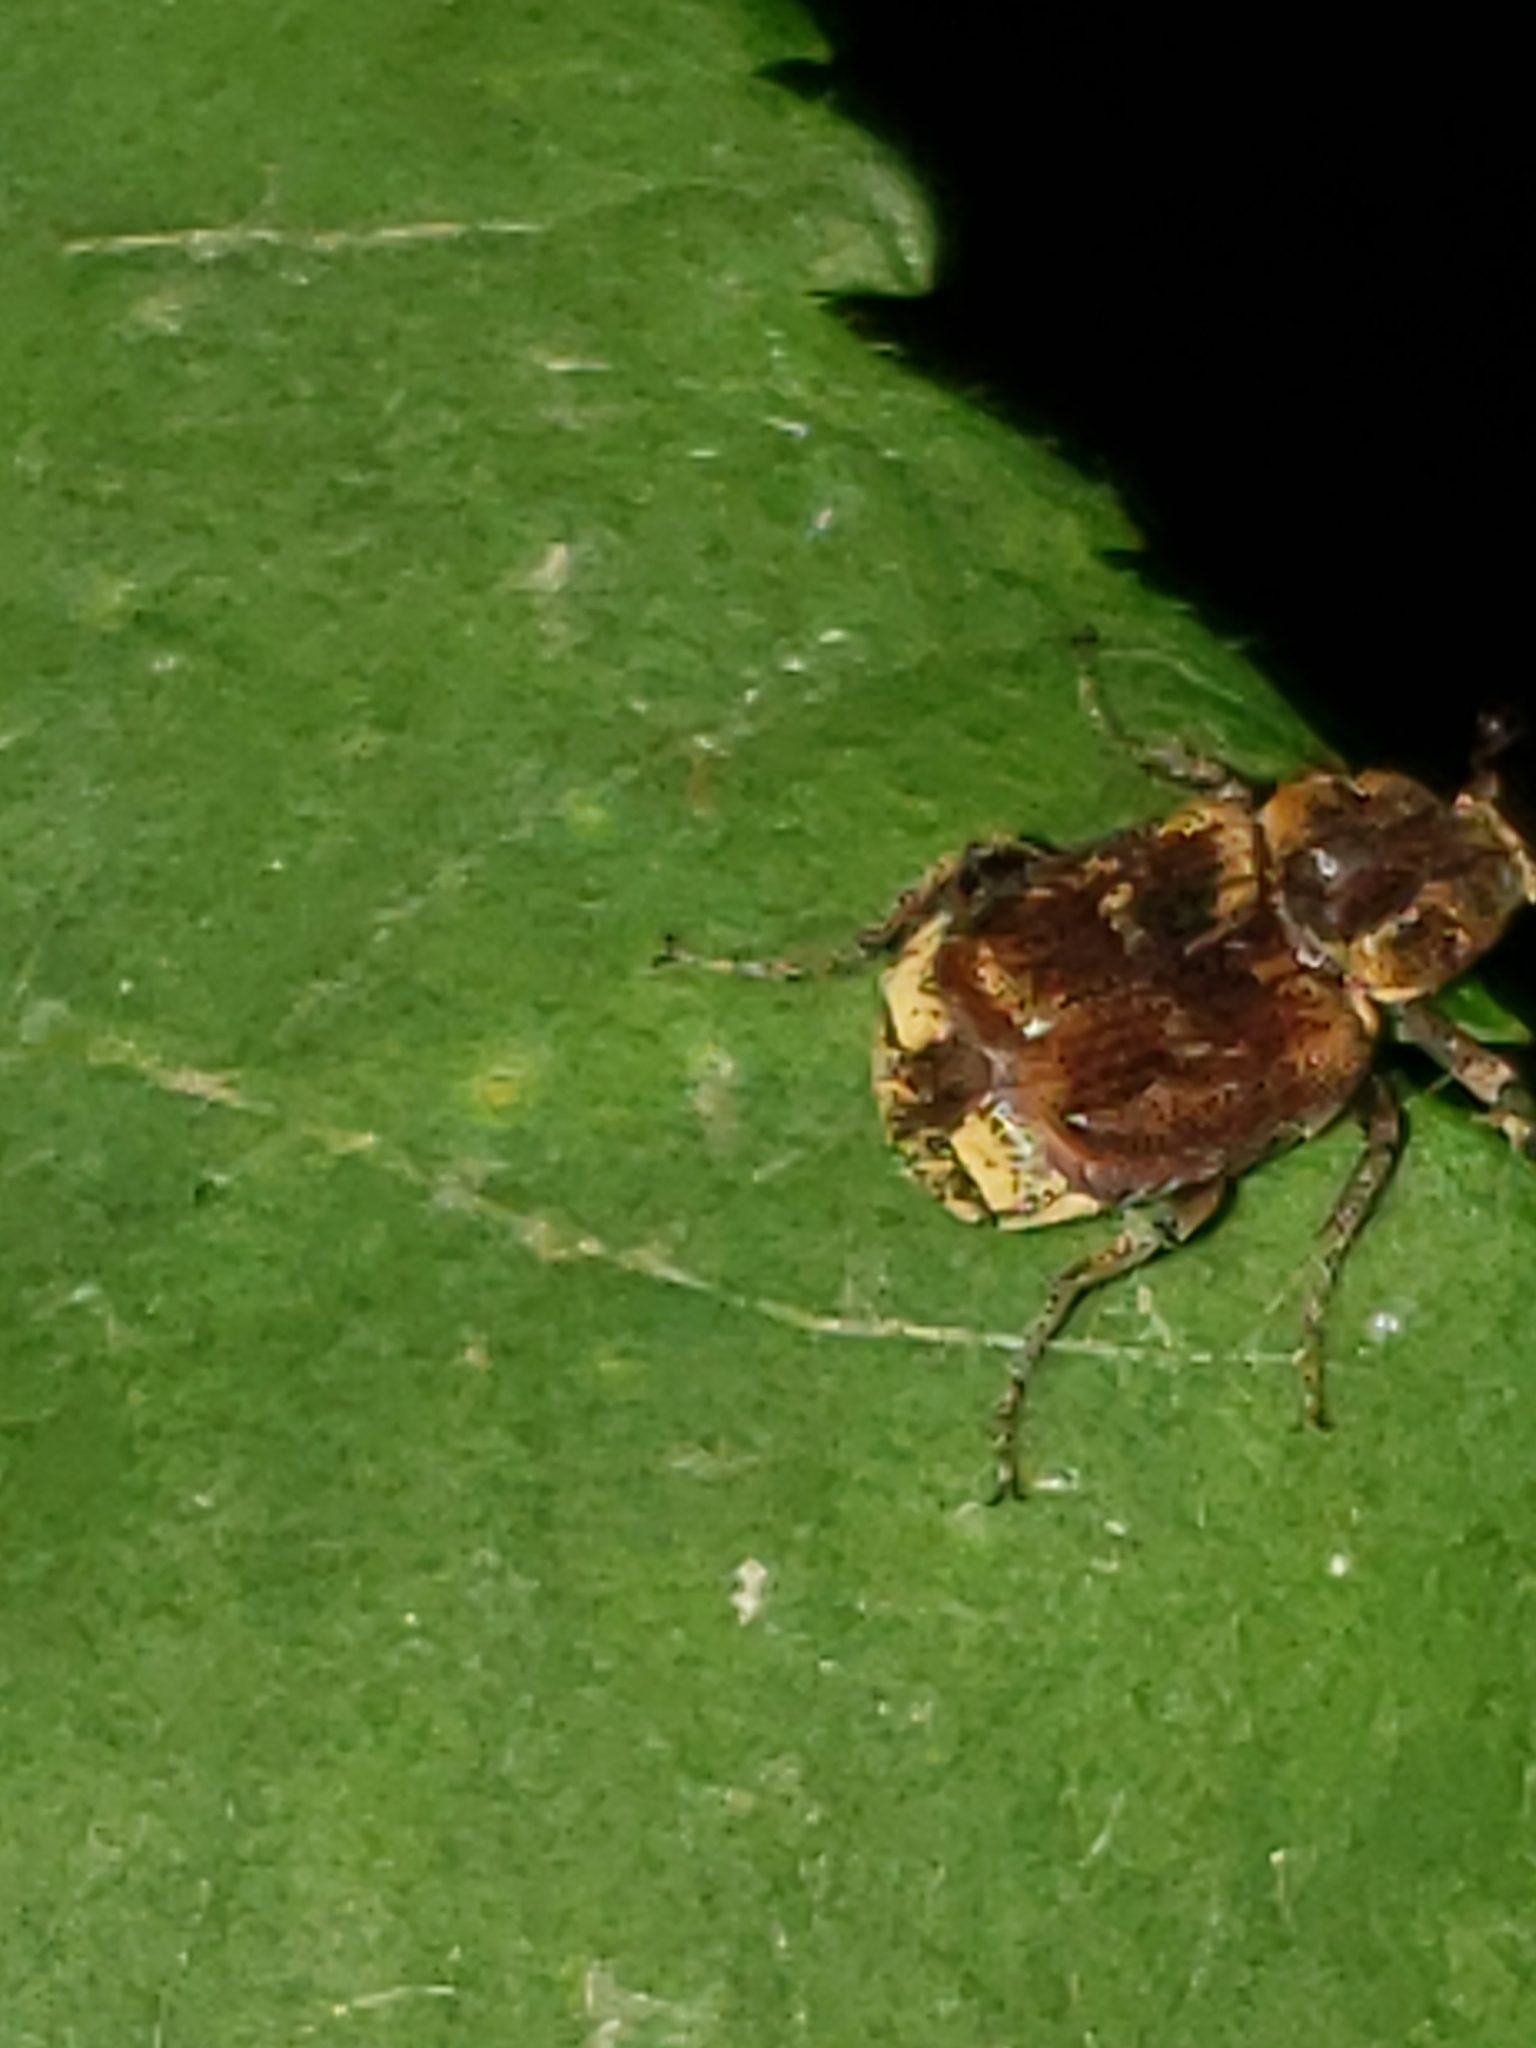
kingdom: Animalia
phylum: Arthropoda
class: Insecta
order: Coleoptera
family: Scarabaeidae
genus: Valgus
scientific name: Valgus canaliculatus
